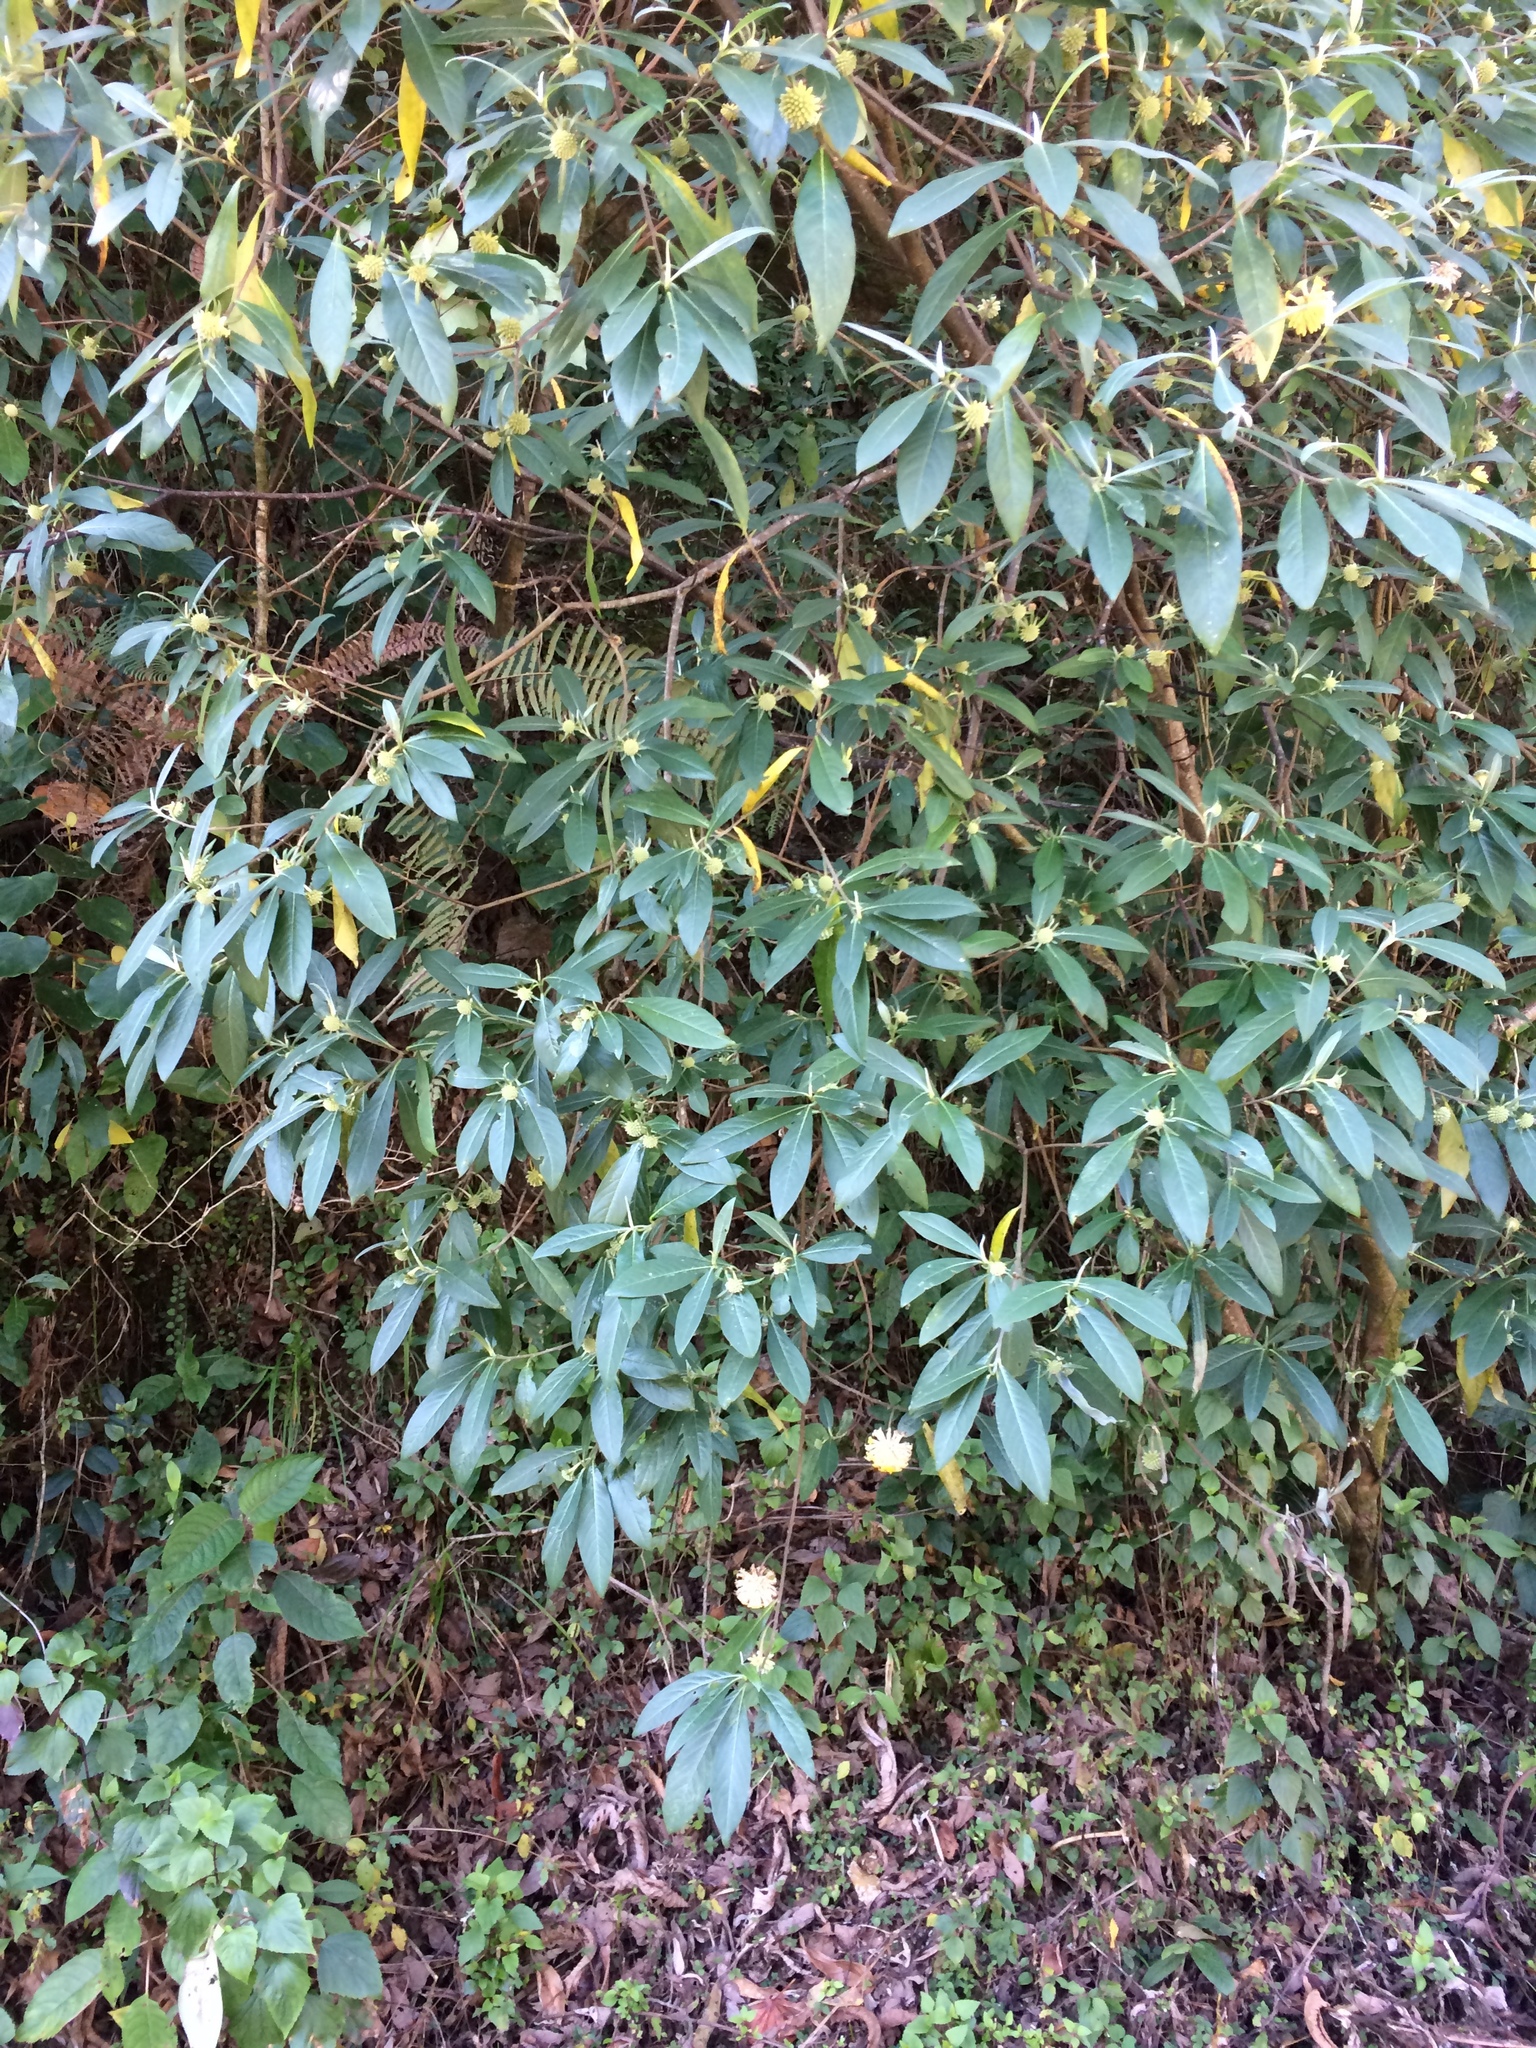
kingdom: Plantae
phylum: Tracheophyta
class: Magnoliopsida
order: Malvales
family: Thymelaeaceae
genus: Edgeworthia
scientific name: Edgeworthia gardneri
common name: Nepalese paperbush
